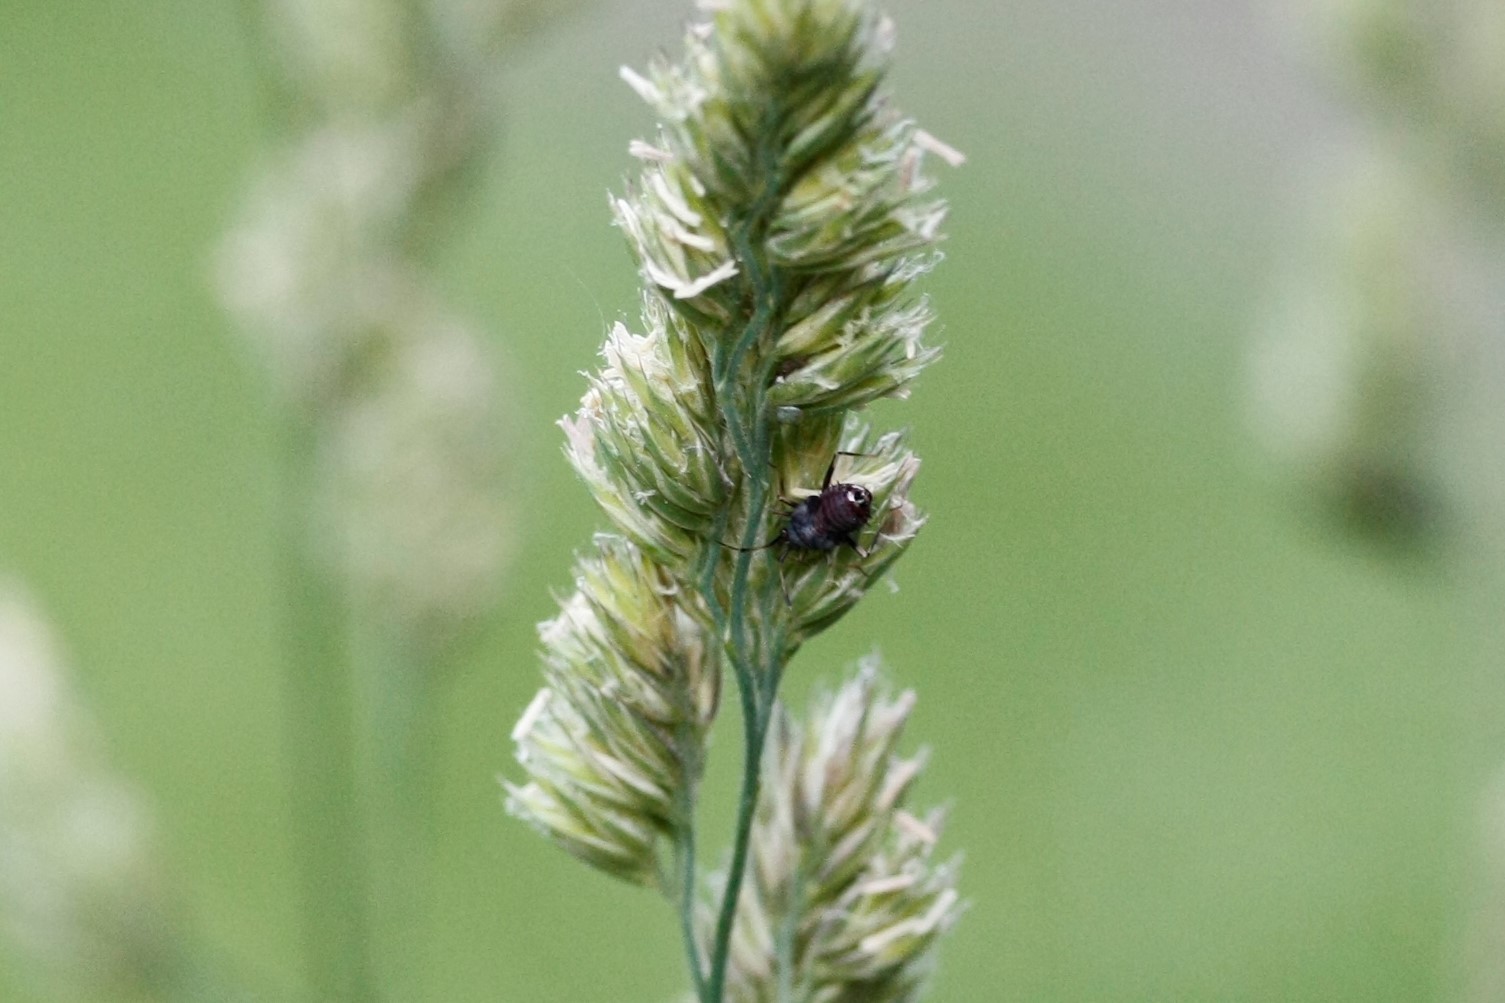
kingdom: Animalia
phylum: Arthropoda
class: Insecta
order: Hemiptera
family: Miridae
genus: Deraeocoris
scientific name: Deraeocoris ruber
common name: Plant bug
